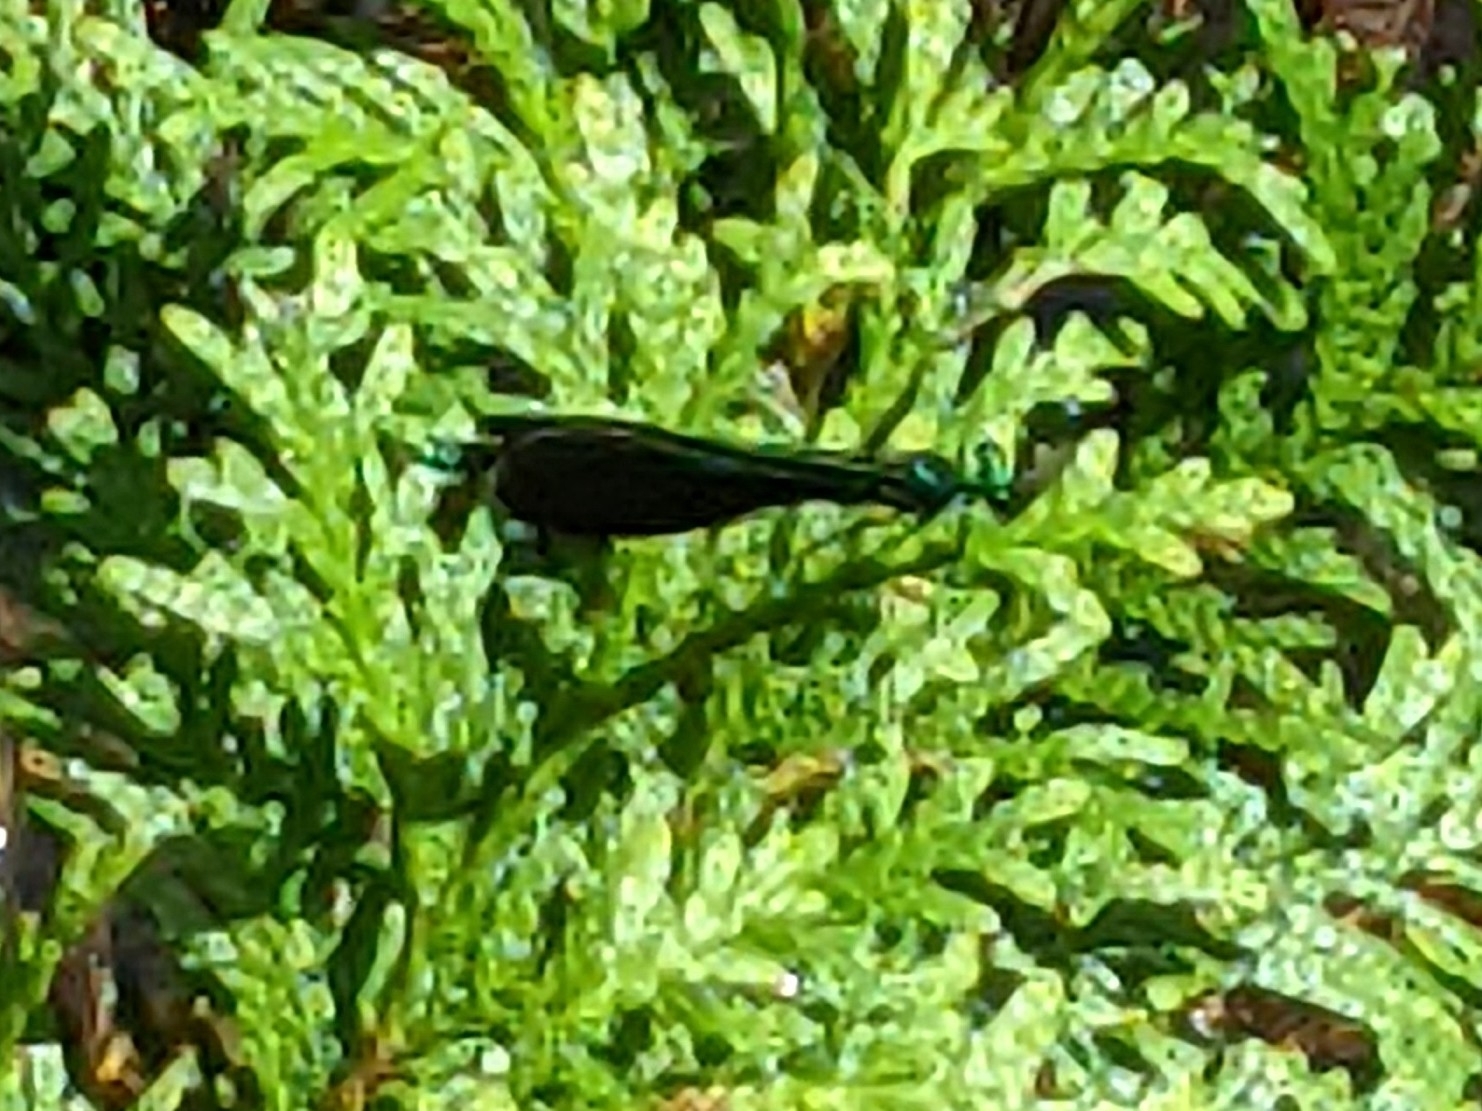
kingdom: Animalia
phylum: Arthropoda
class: Insecta
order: Odonata
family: Calopterygidae
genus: Calopteryx
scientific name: Calopteryx maculata
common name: Ebony jewelwing
